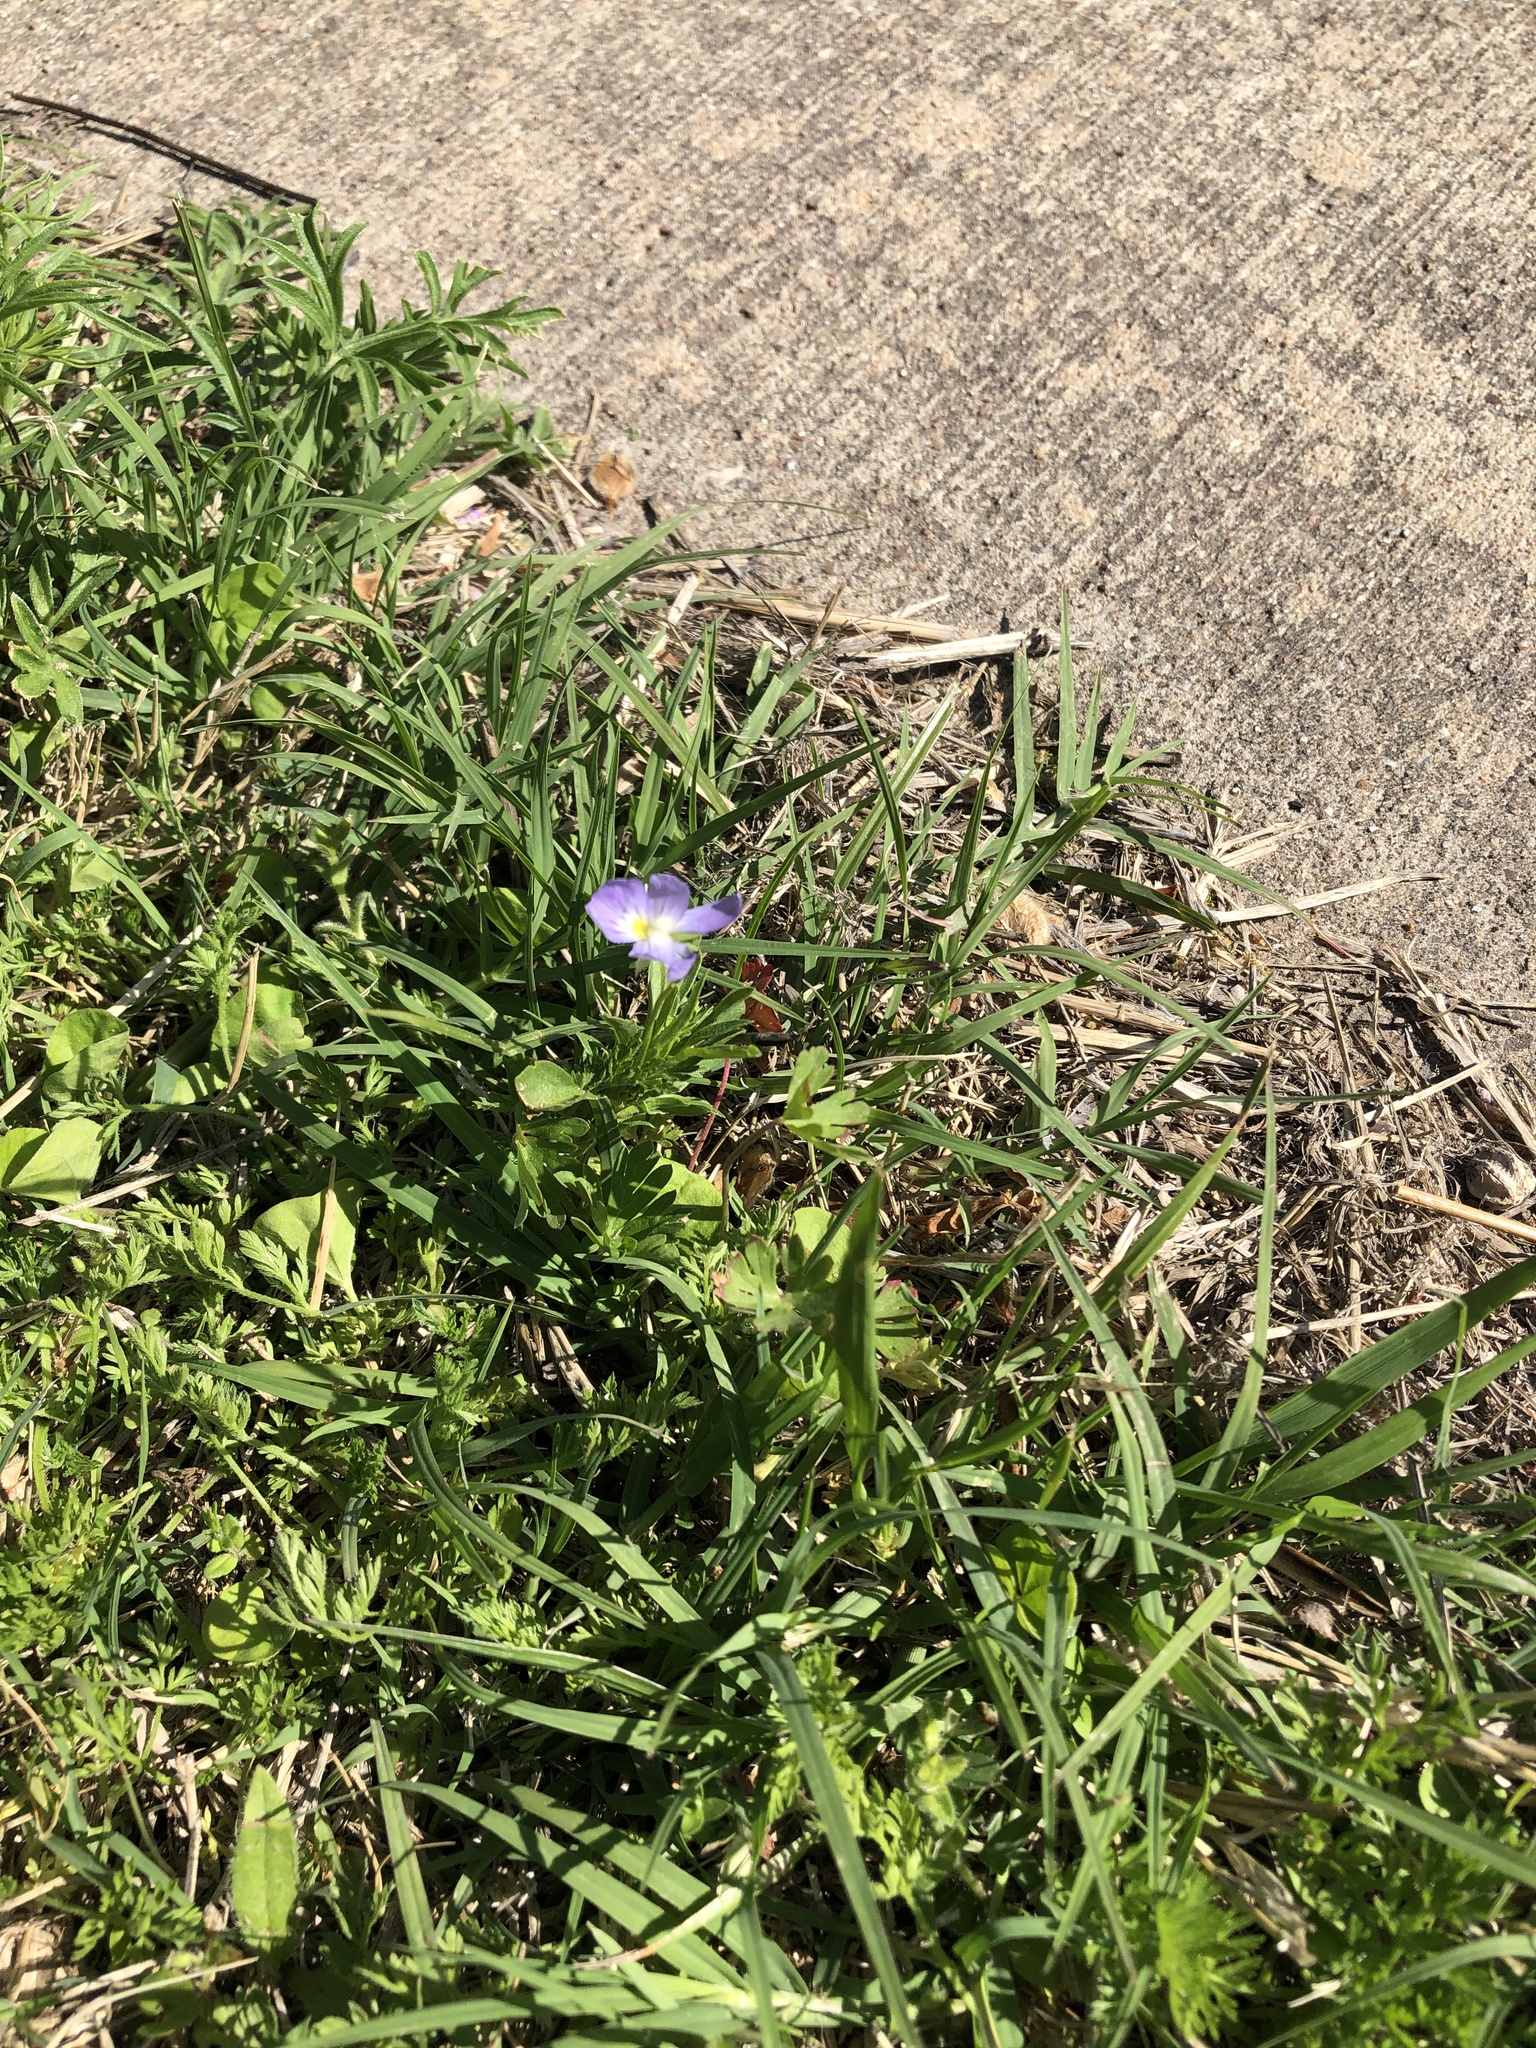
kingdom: Plantae
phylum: Tracheophyta
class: Magnoliopsida
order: Malpighiales
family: Violaceae
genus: Viola
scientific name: Viola rafinesquei
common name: American field pansy
